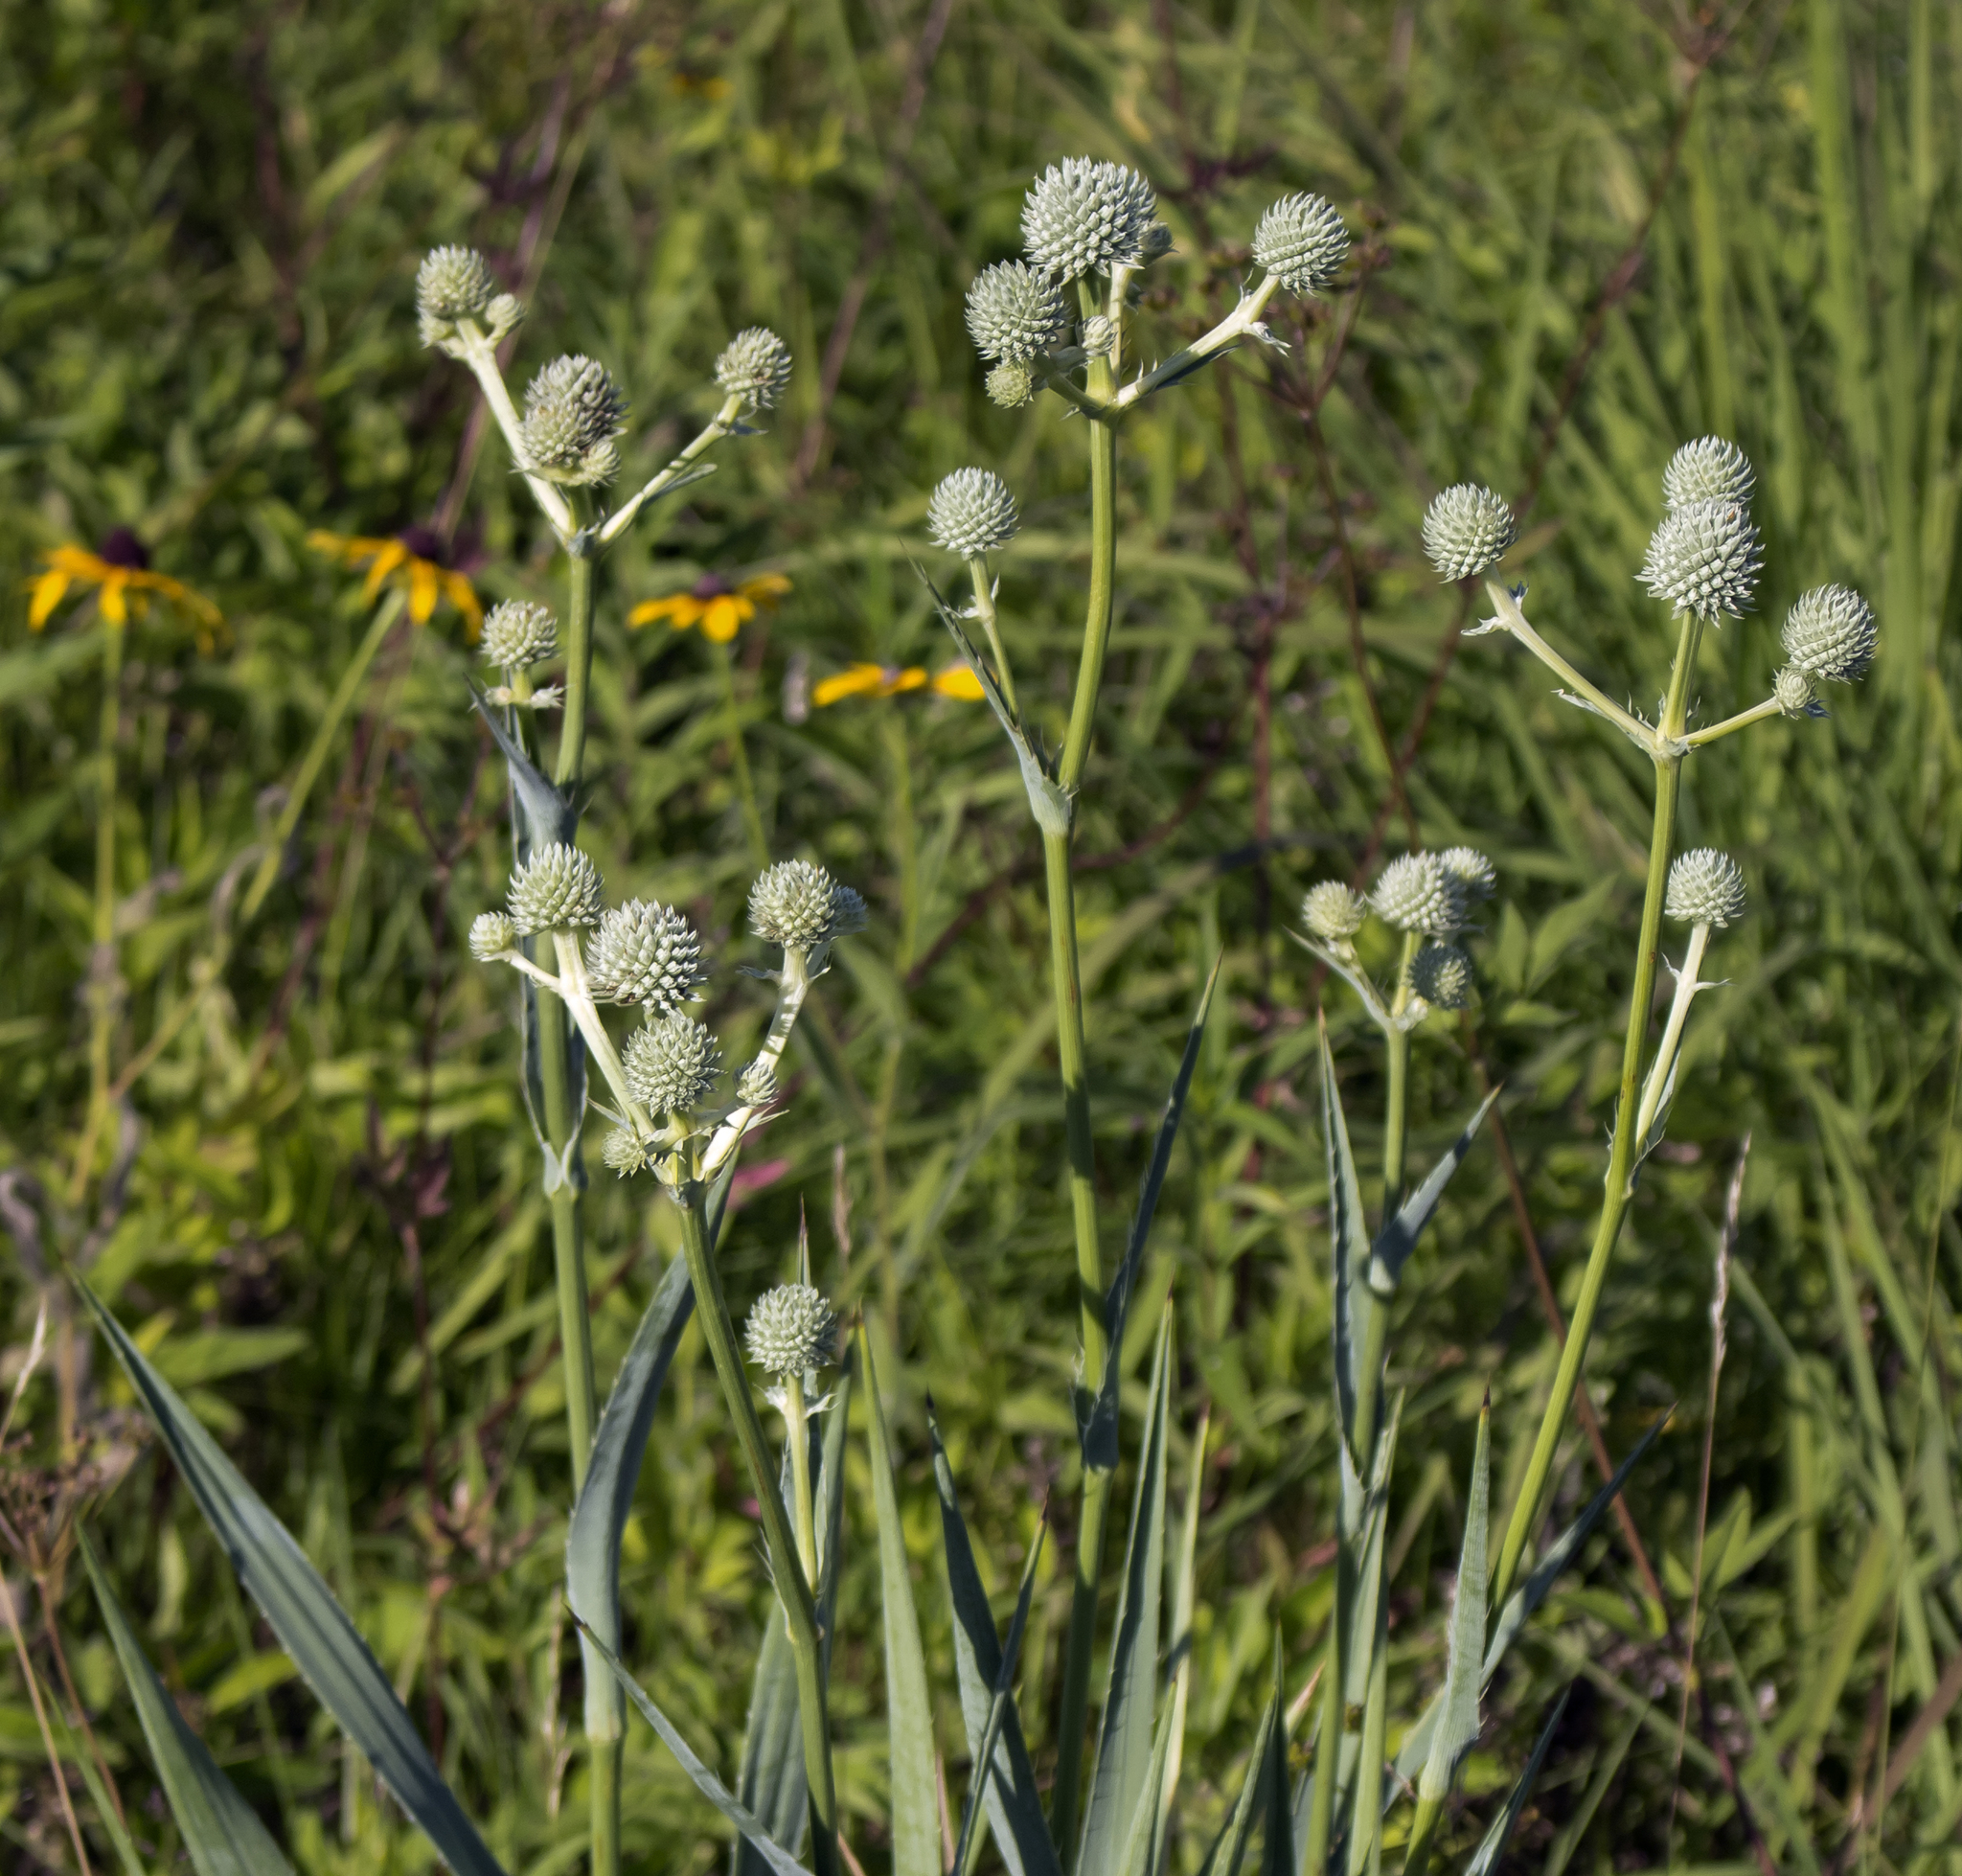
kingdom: Plantae
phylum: Tracheophyta
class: Magnoliopsida
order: Apiales
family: Apiaceae
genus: Eryngium
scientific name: Eryngium yuccifolium
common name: Button eryngo
